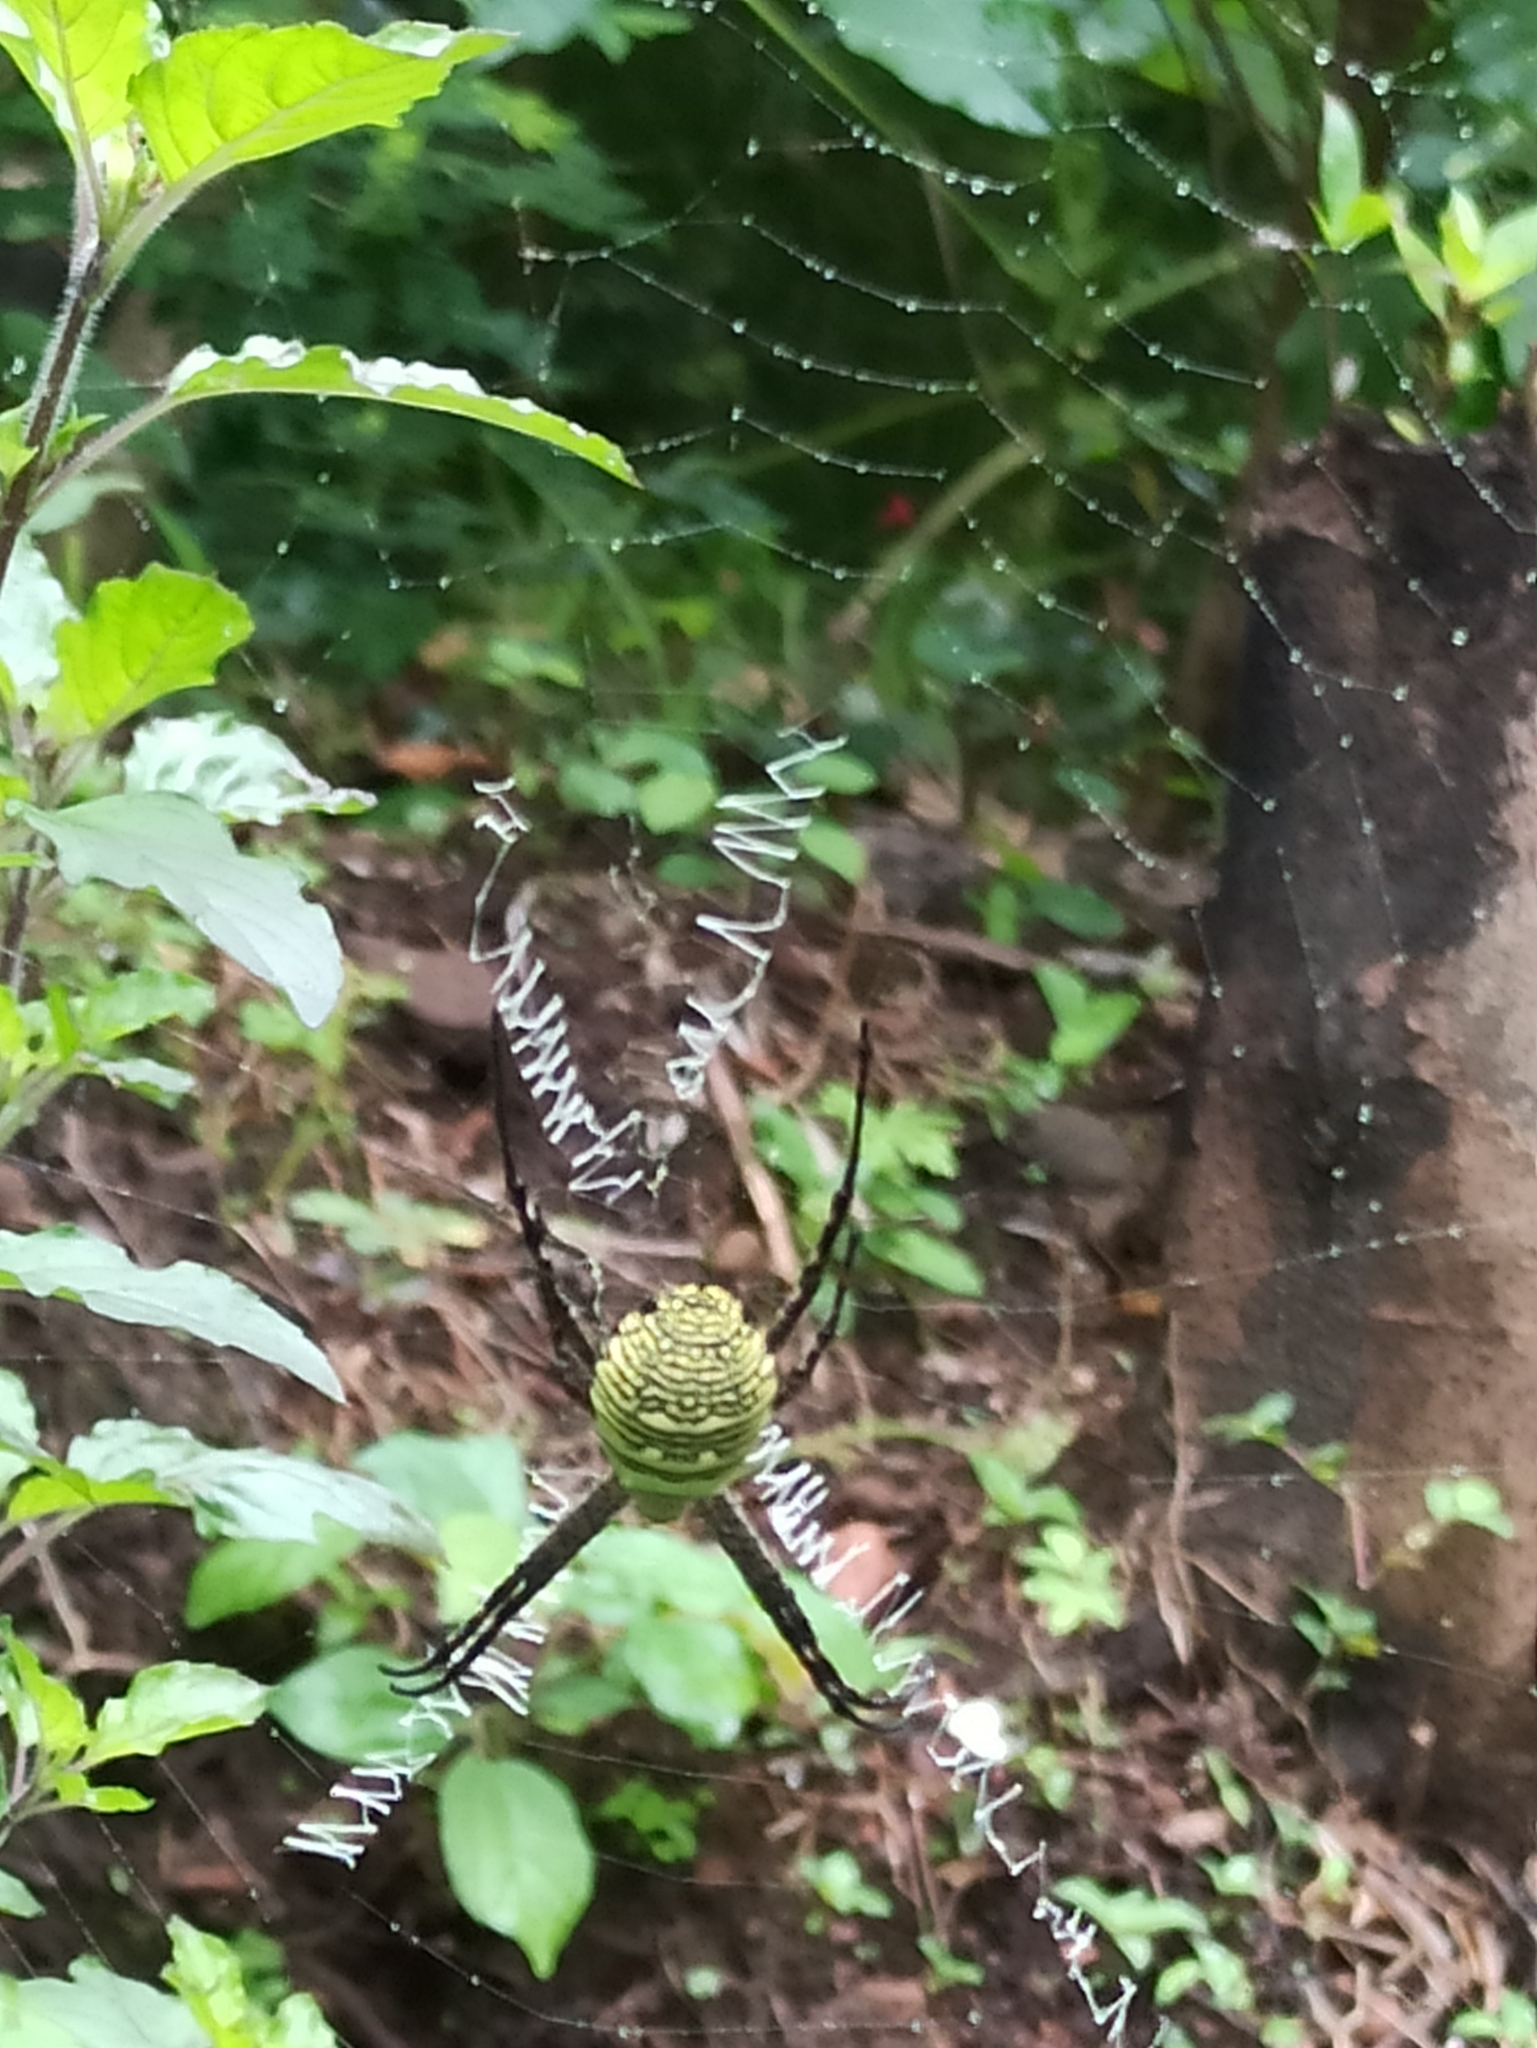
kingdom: Animalia
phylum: Arthropoda
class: Arachnida
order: Araneae
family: Araneidae
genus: Argiope
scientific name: Argiope aemula
